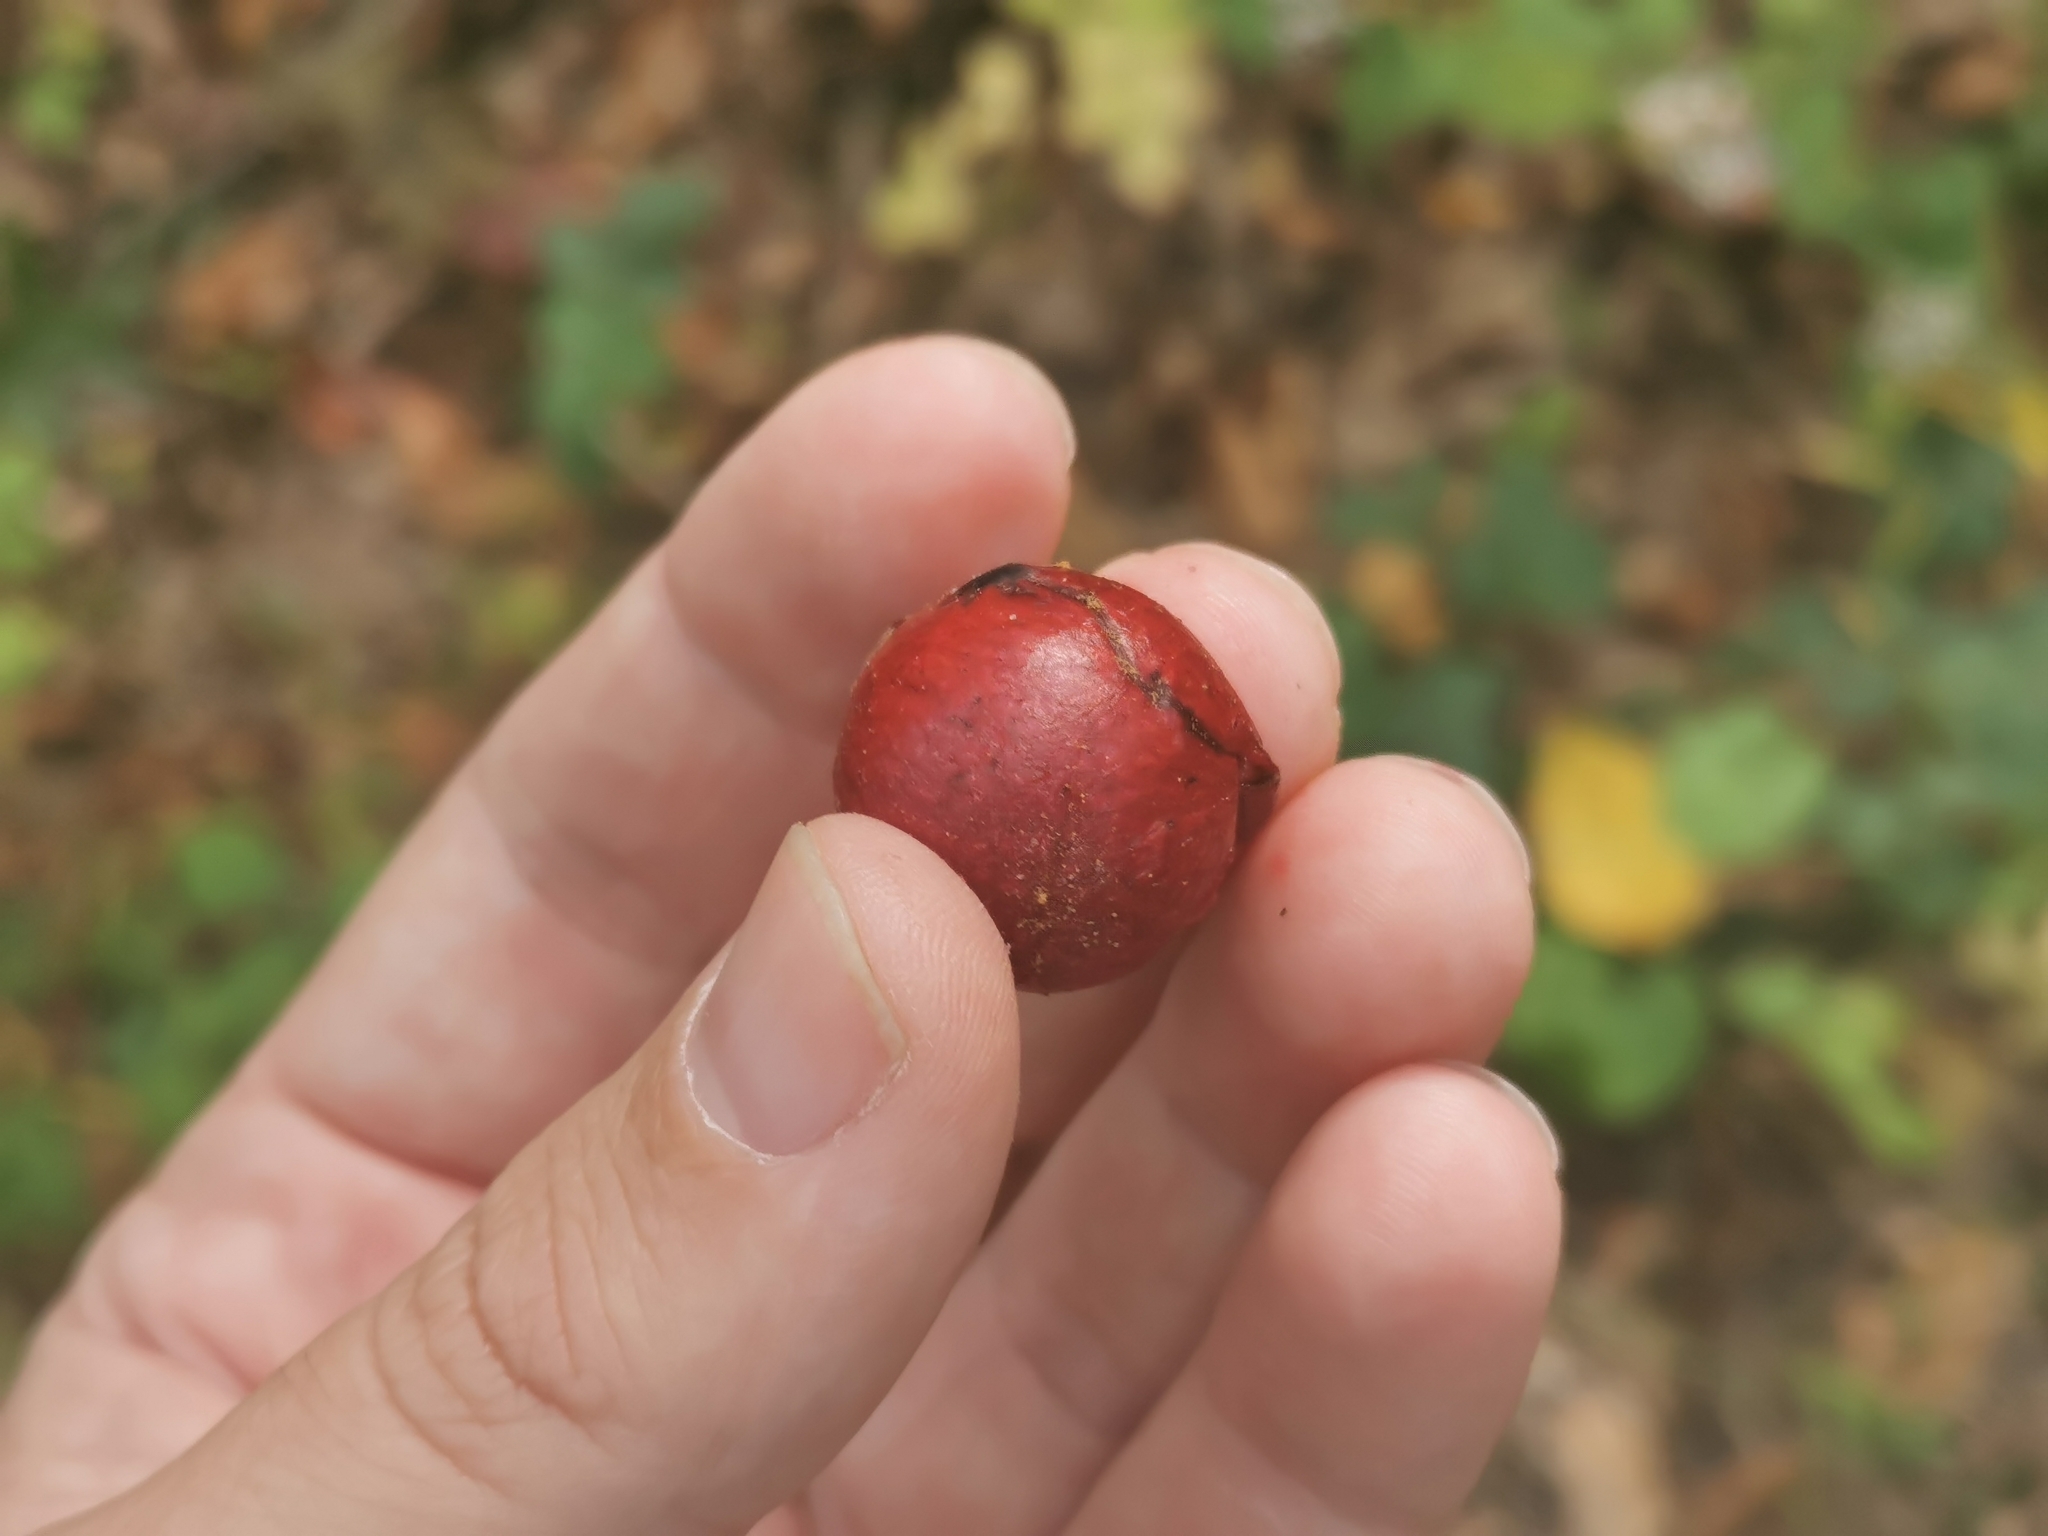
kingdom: Animalia
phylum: Arthropoda
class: Insecta
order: Hymenoptera
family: Cynipidae
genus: Amphibolips
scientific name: Amphibolips
